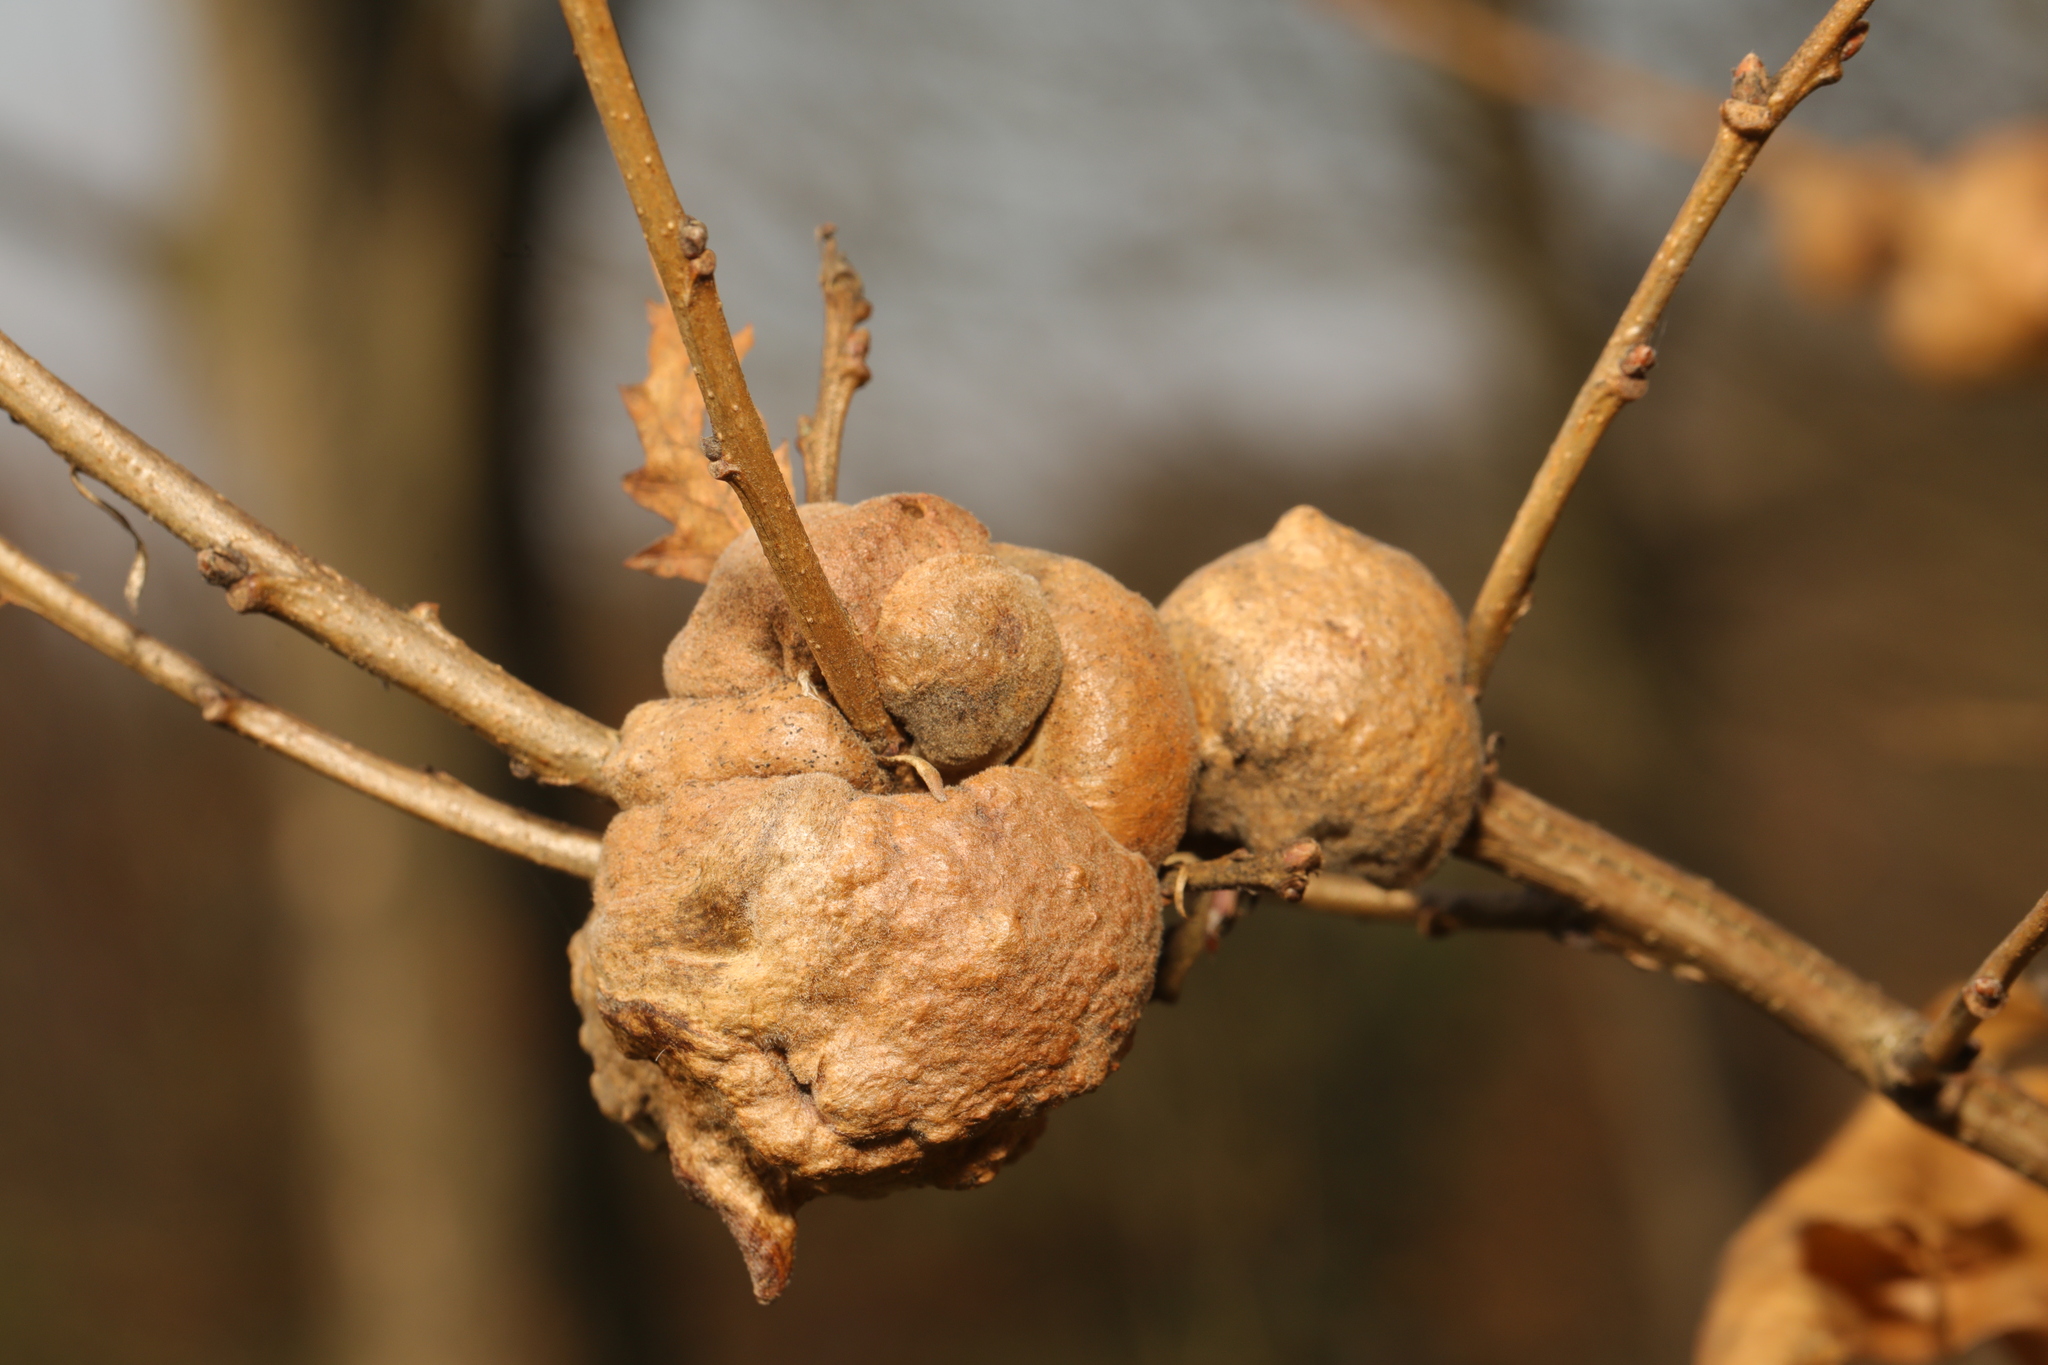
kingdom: Animalia
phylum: Arthropoda
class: Insecta
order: Hymenoptera
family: Cynipidae
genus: Aphelonyx
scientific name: Aphelonyx cerricola
